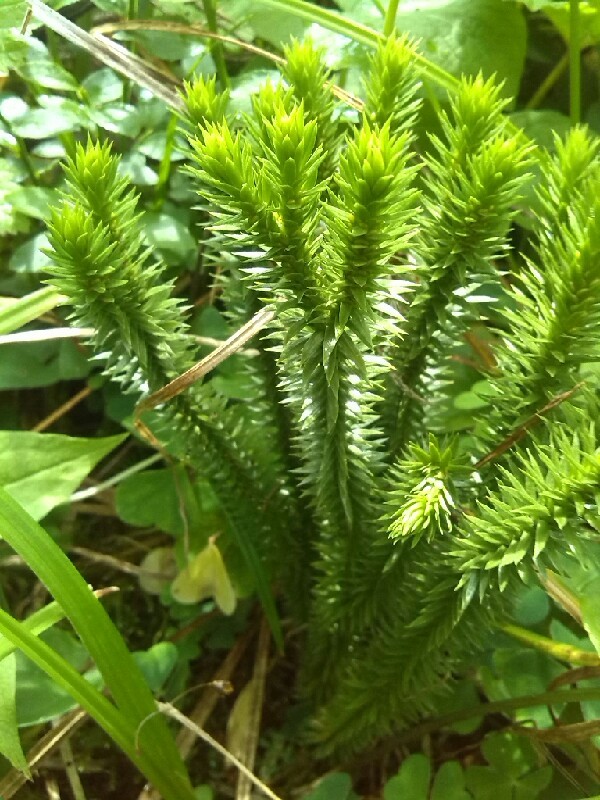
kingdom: Plantae
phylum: Tracheophyta
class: Lycopodiopsida
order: Lycopodiales
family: Lycopodiaceae
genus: Huperzia
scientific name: Huperzia selago
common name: Northern firmoss
